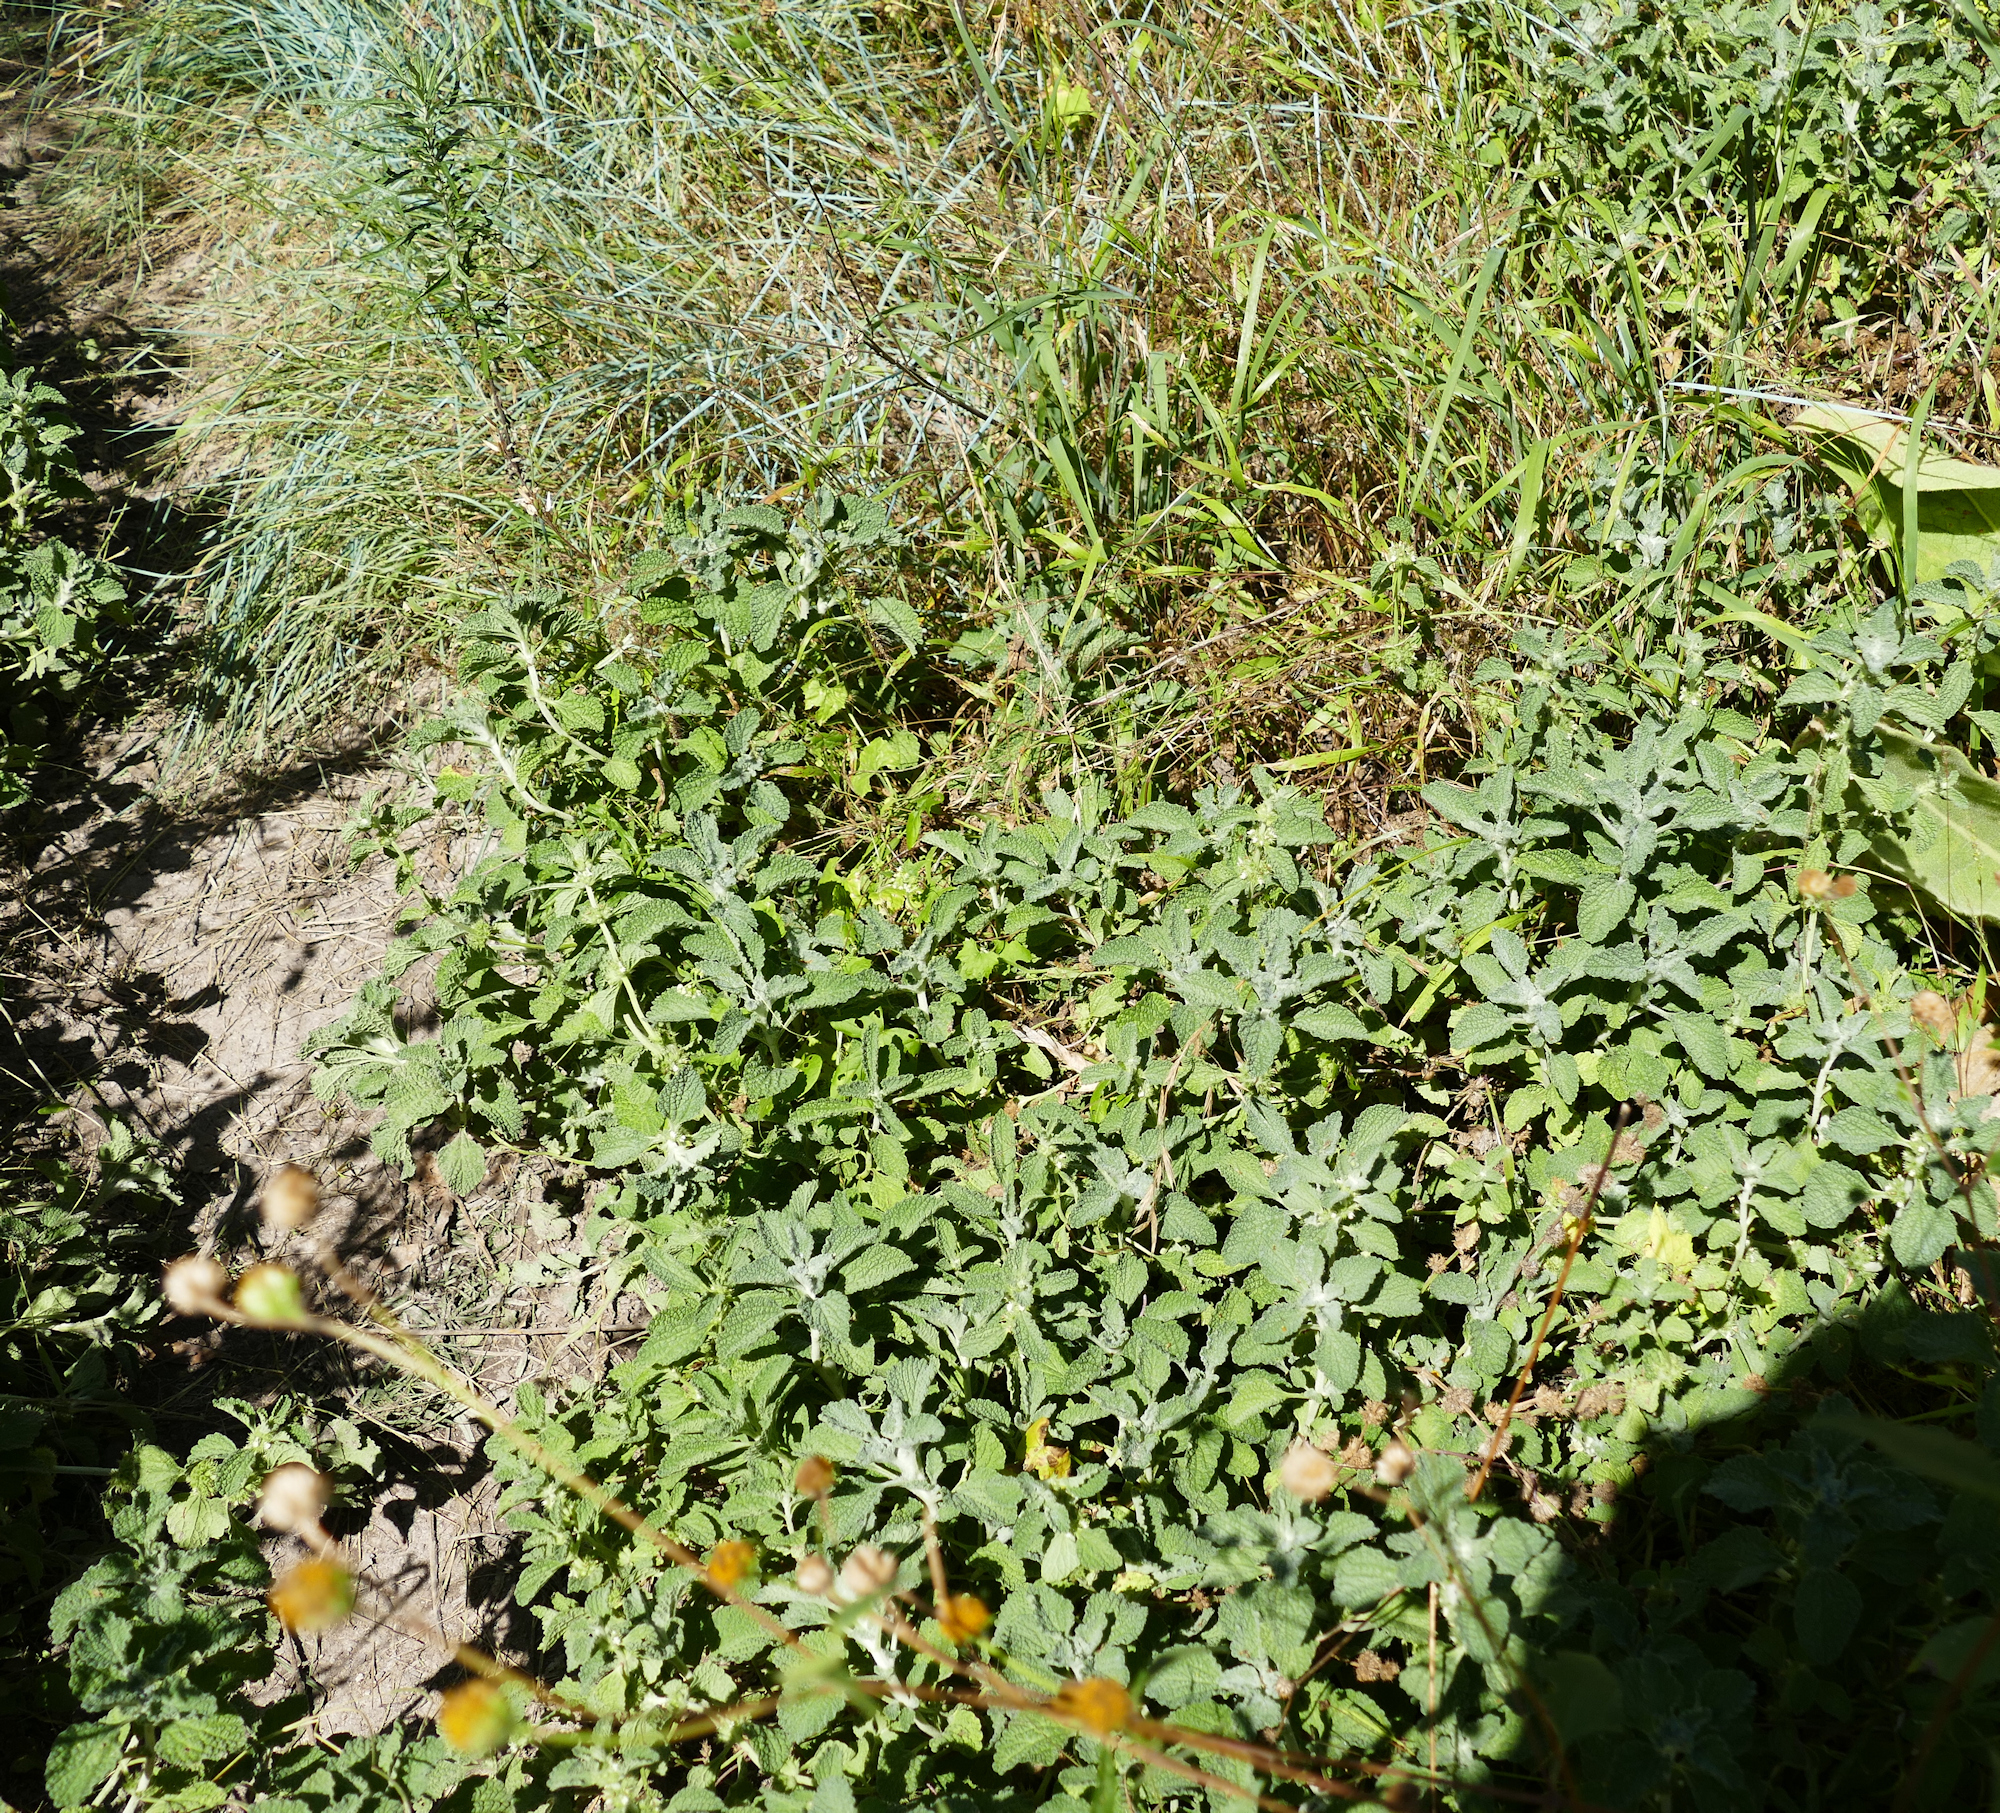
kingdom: Plantae
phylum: Tracheophyta
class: Magnoliopsida
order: Lamiales
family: Lamiaceae
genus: Marrubium
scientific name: Marrubium vulgare
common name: Horehound
